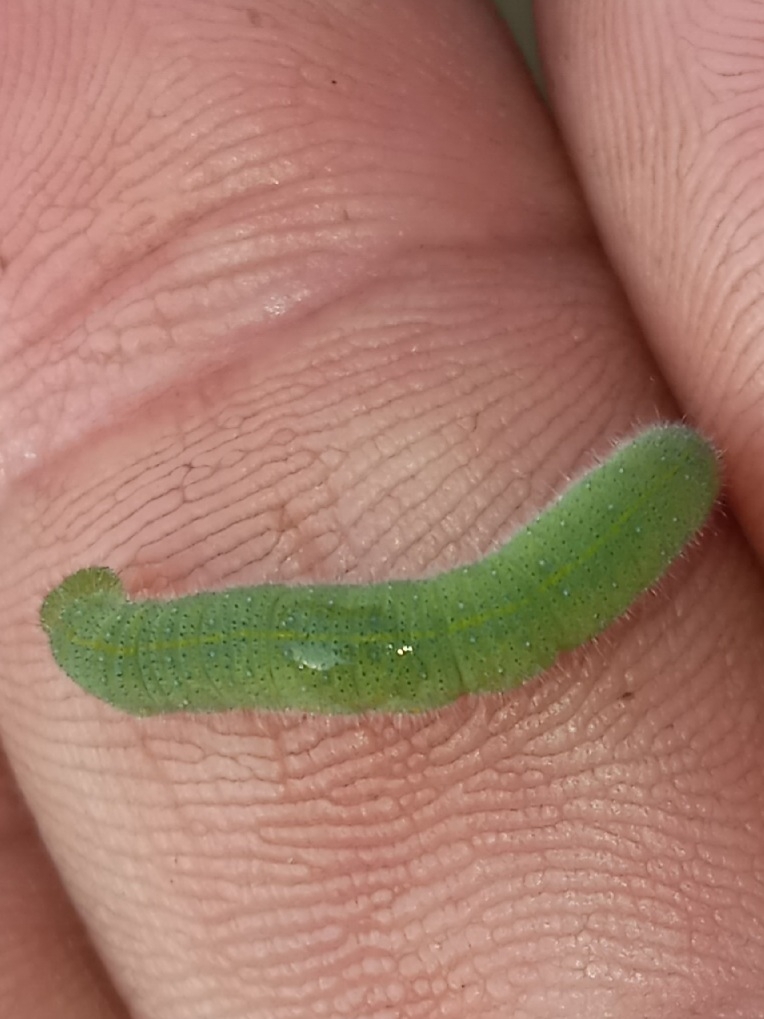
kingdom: Animalia
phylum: Arthropoda
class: Insecta
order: Lepidoptera
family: Pieridae
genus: Pieris
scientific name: Pieris rapae
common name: Small white
